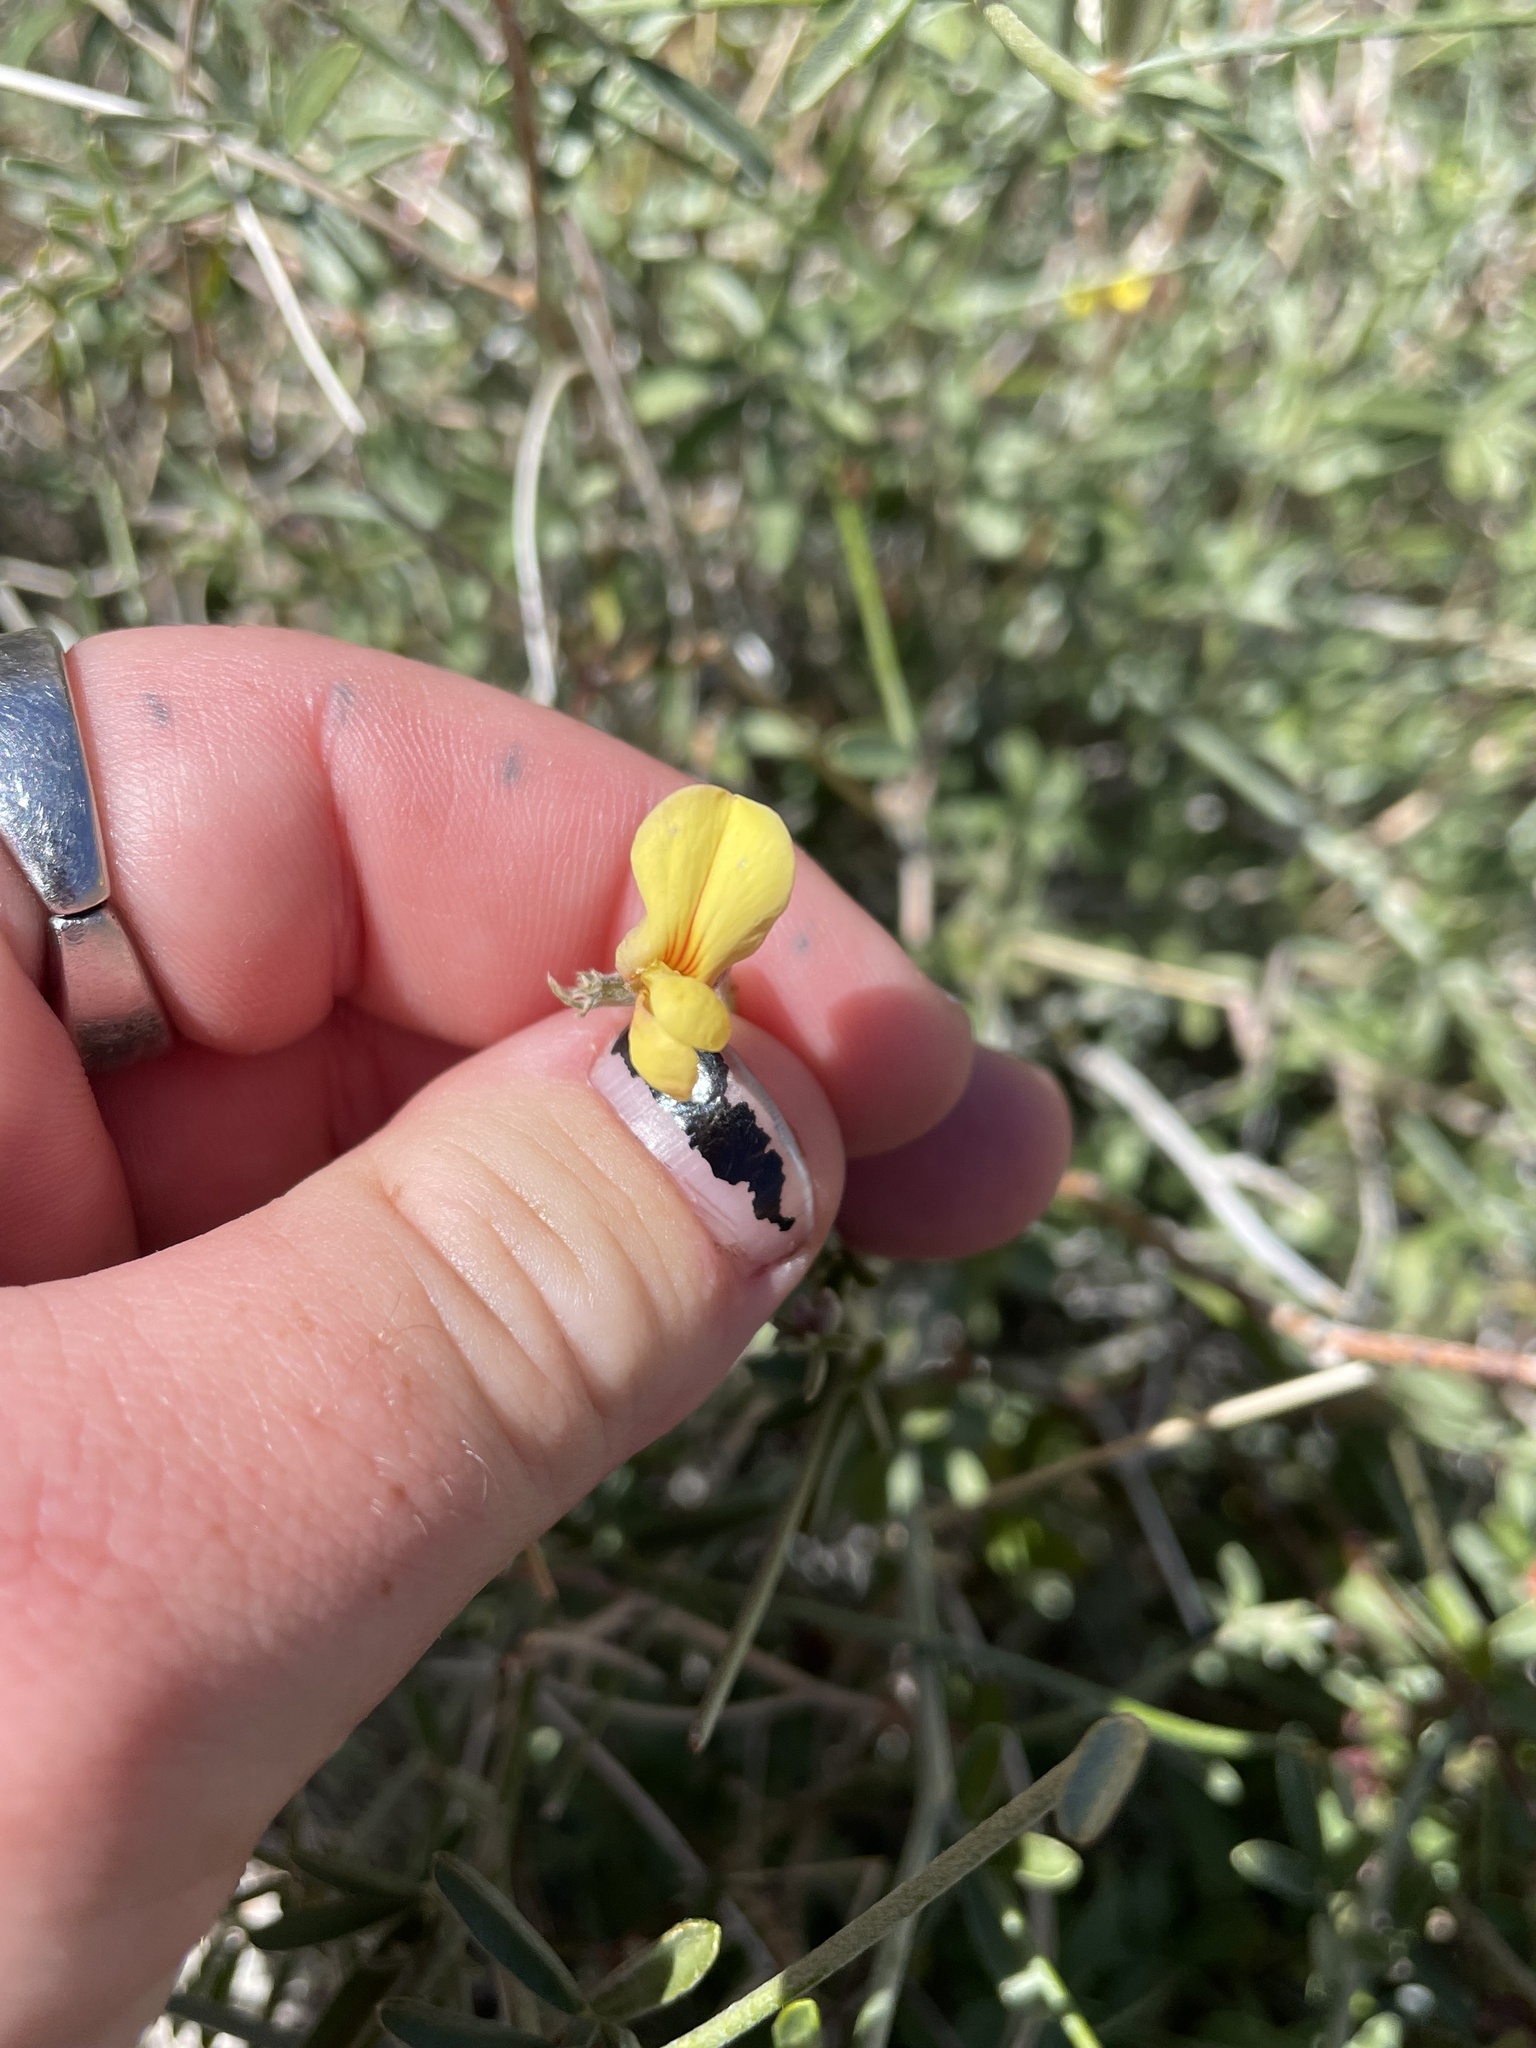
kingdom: Plantae
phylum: Tracheophyta
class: Magnoliopsida
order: Fabales
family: Fabaceae
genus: Acmispon
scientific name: Acmispon rigidus
